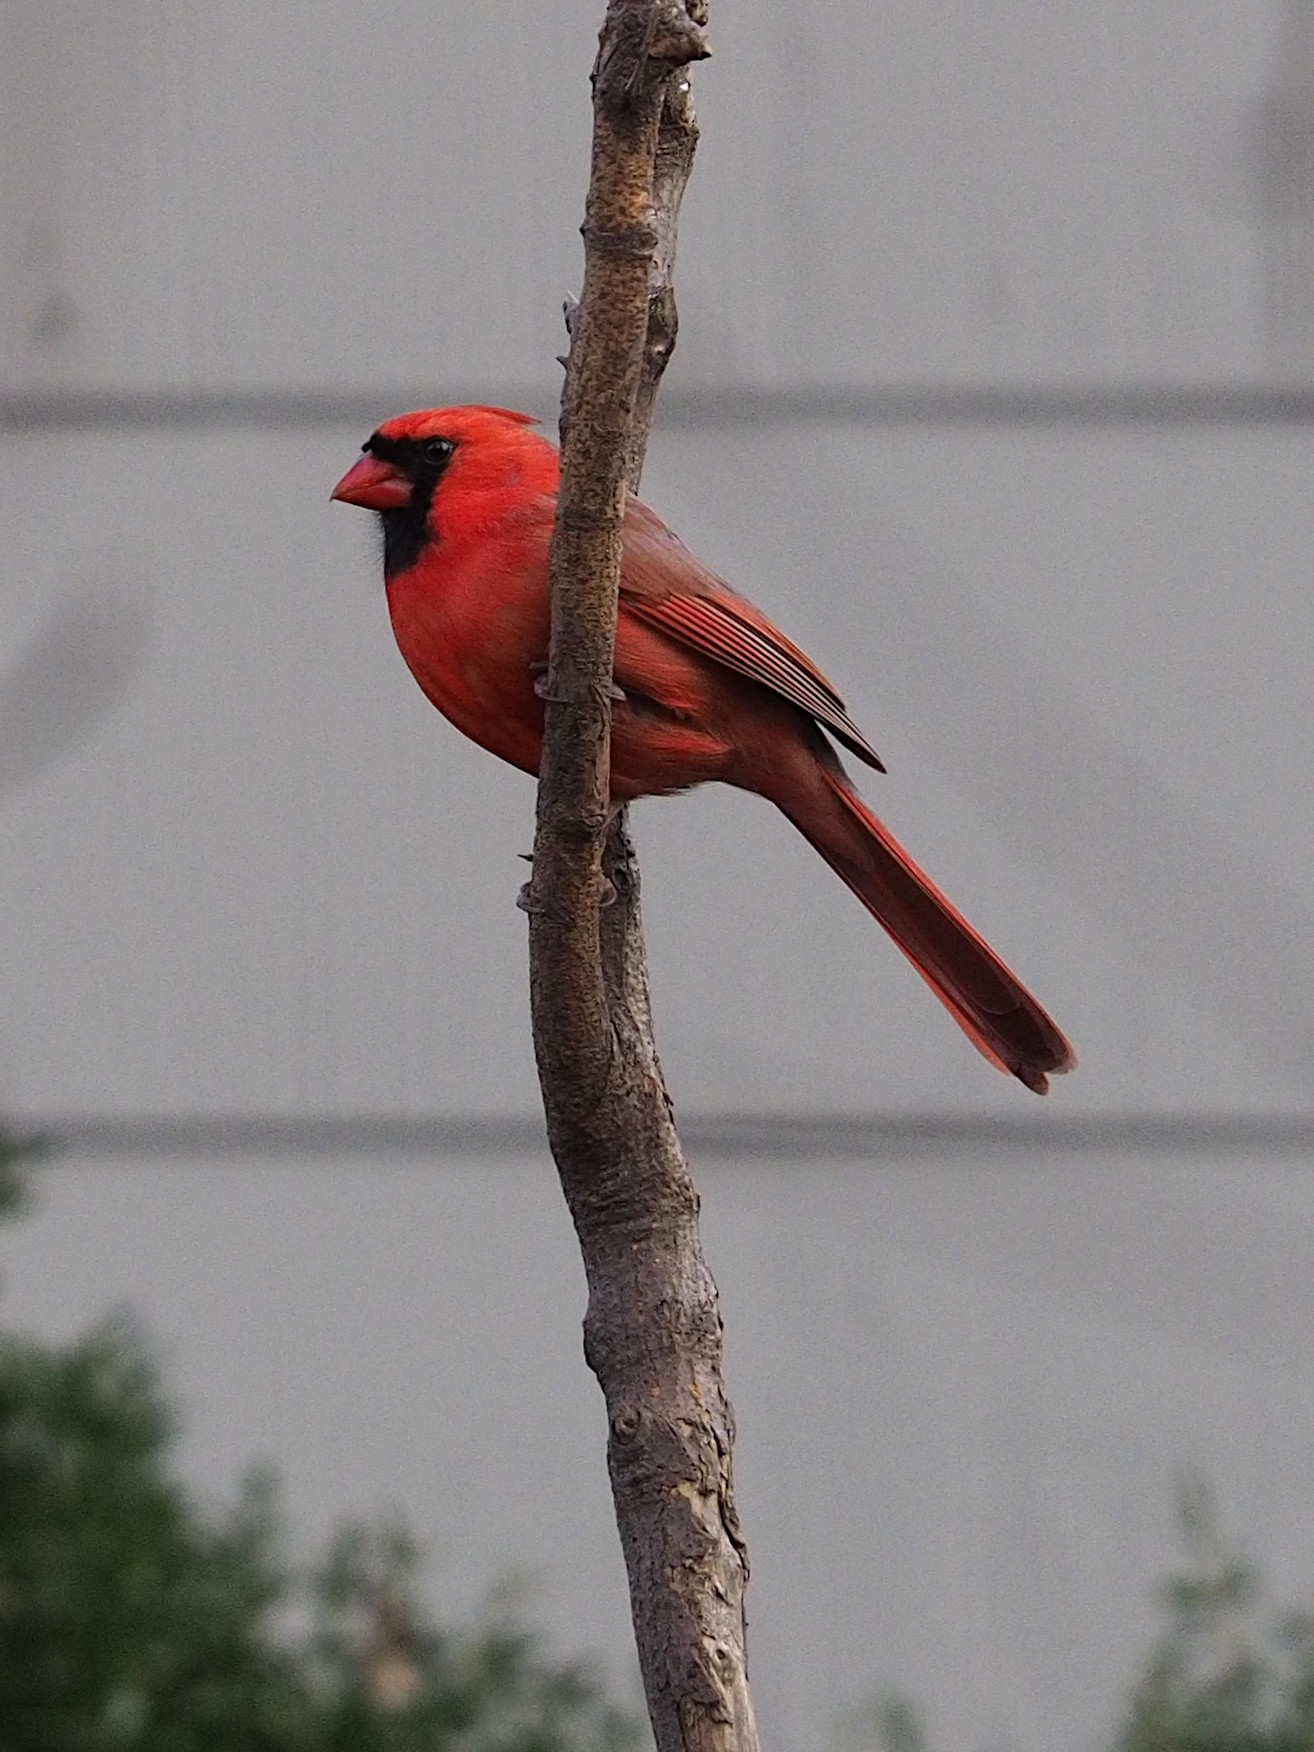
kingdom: Animalia
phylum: Chordata
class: Aves
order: Passeriformes
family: Cardinalidae
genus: Cardinalis
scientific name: Cardinalis cardinalis
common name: Northern cardinal
